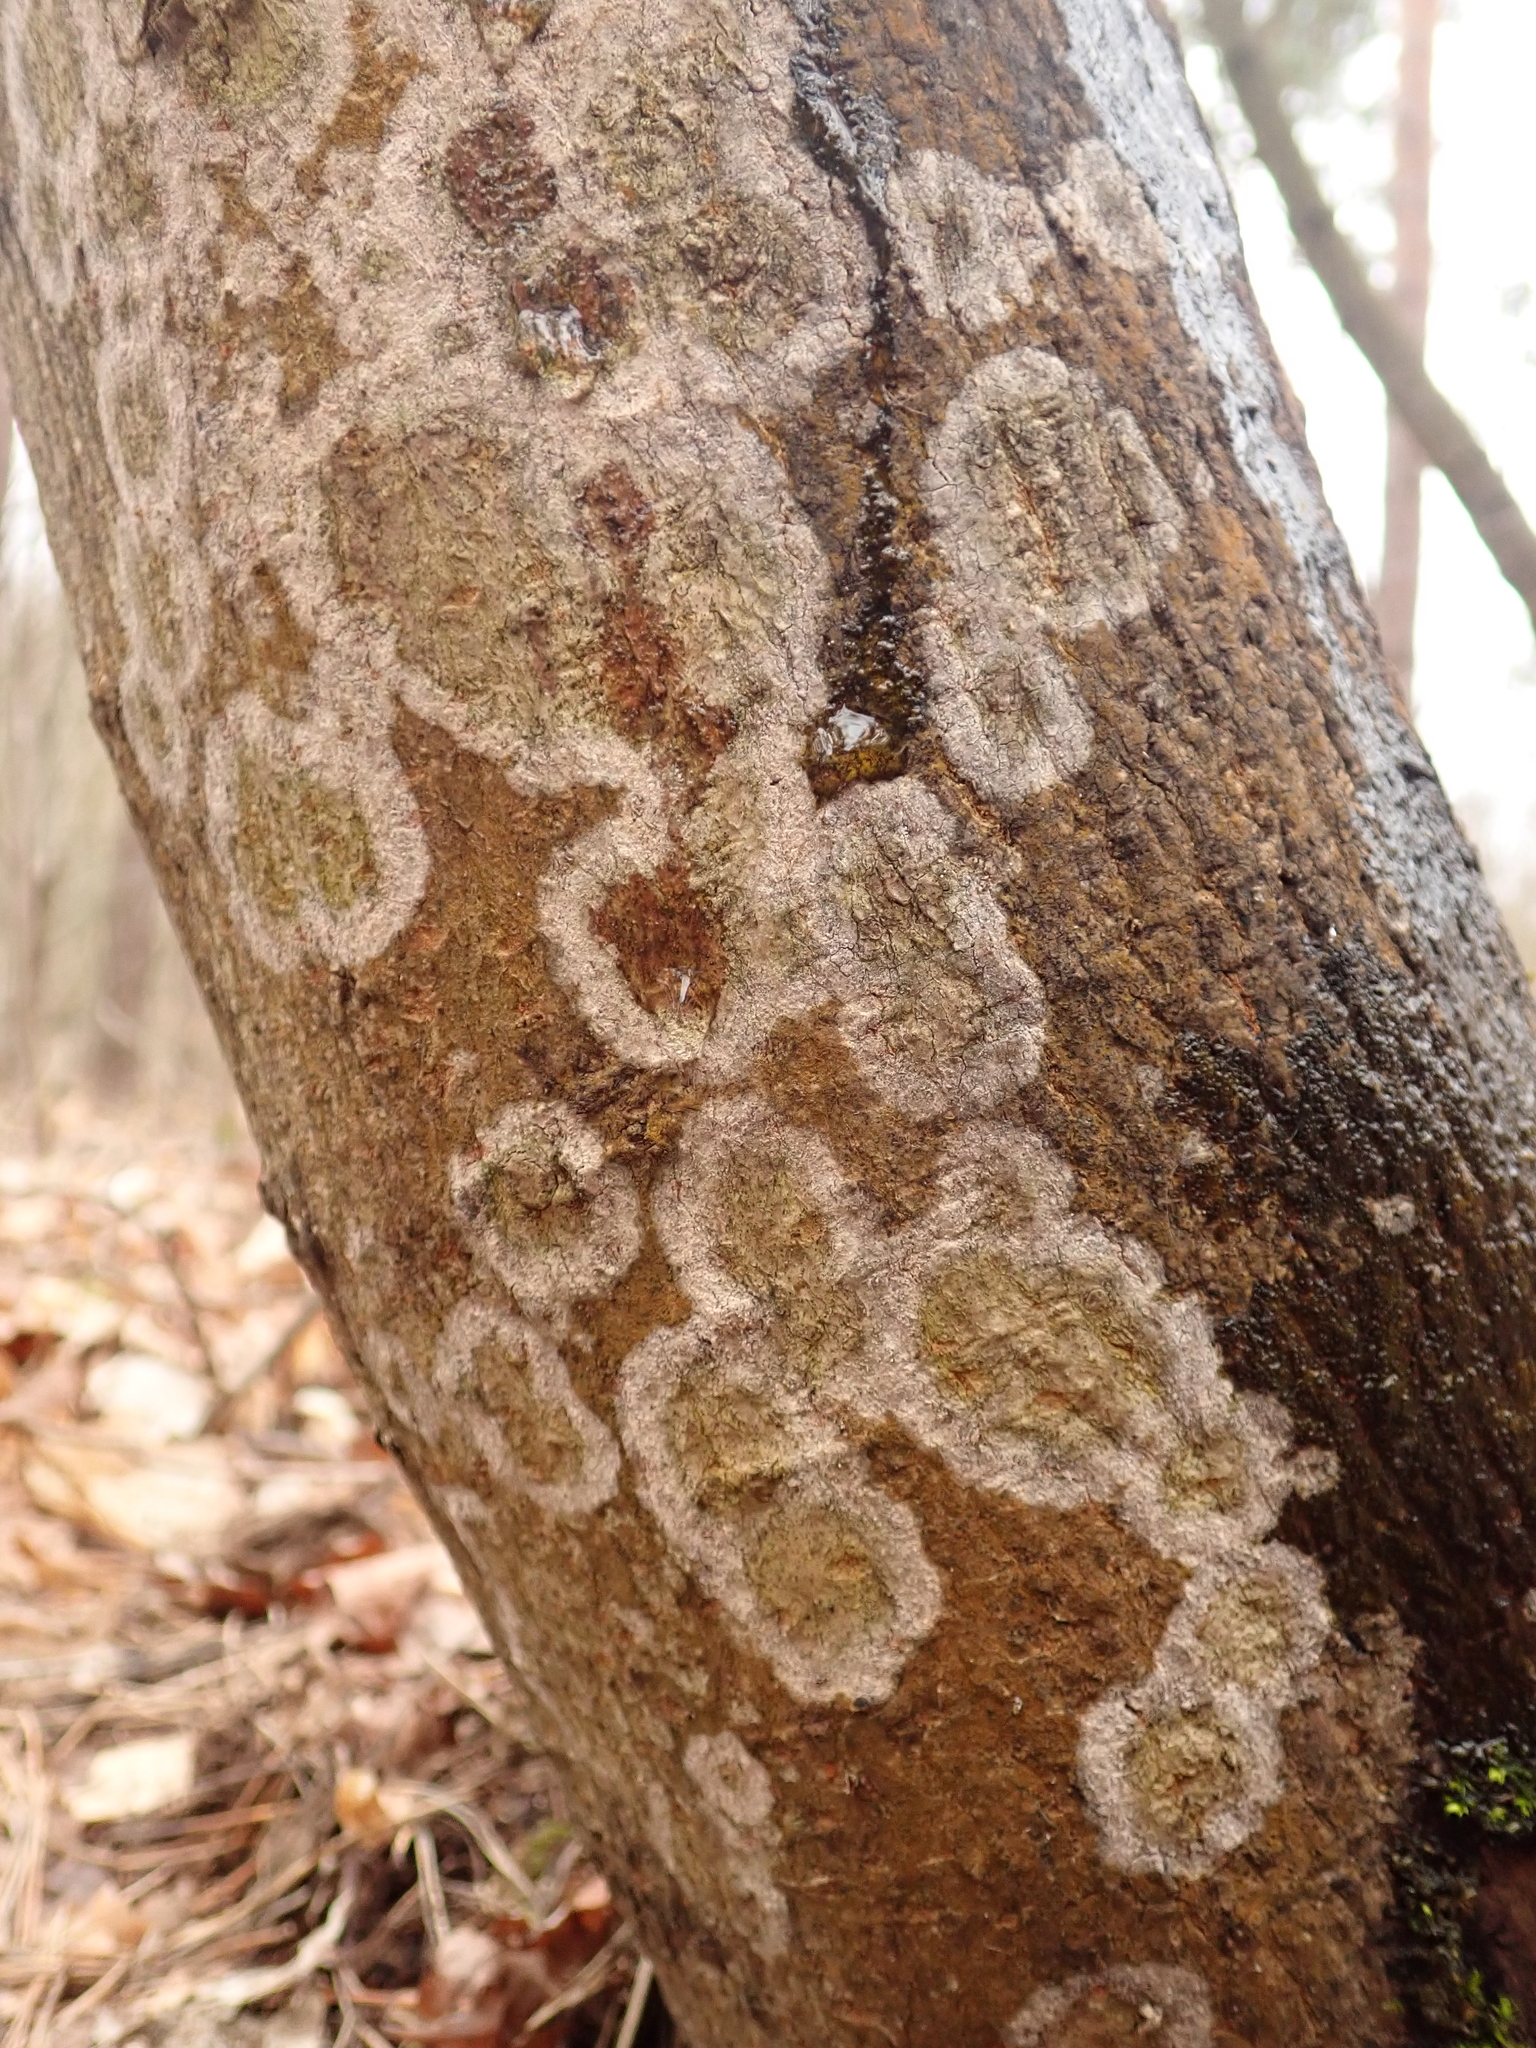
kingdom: Fungi
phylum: Basidiomycota
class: Agaricomycetes
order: Atheliales
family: Atheliaceae
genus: Athelia
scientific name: Athelia arachnoidea
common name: Candelabra duster
